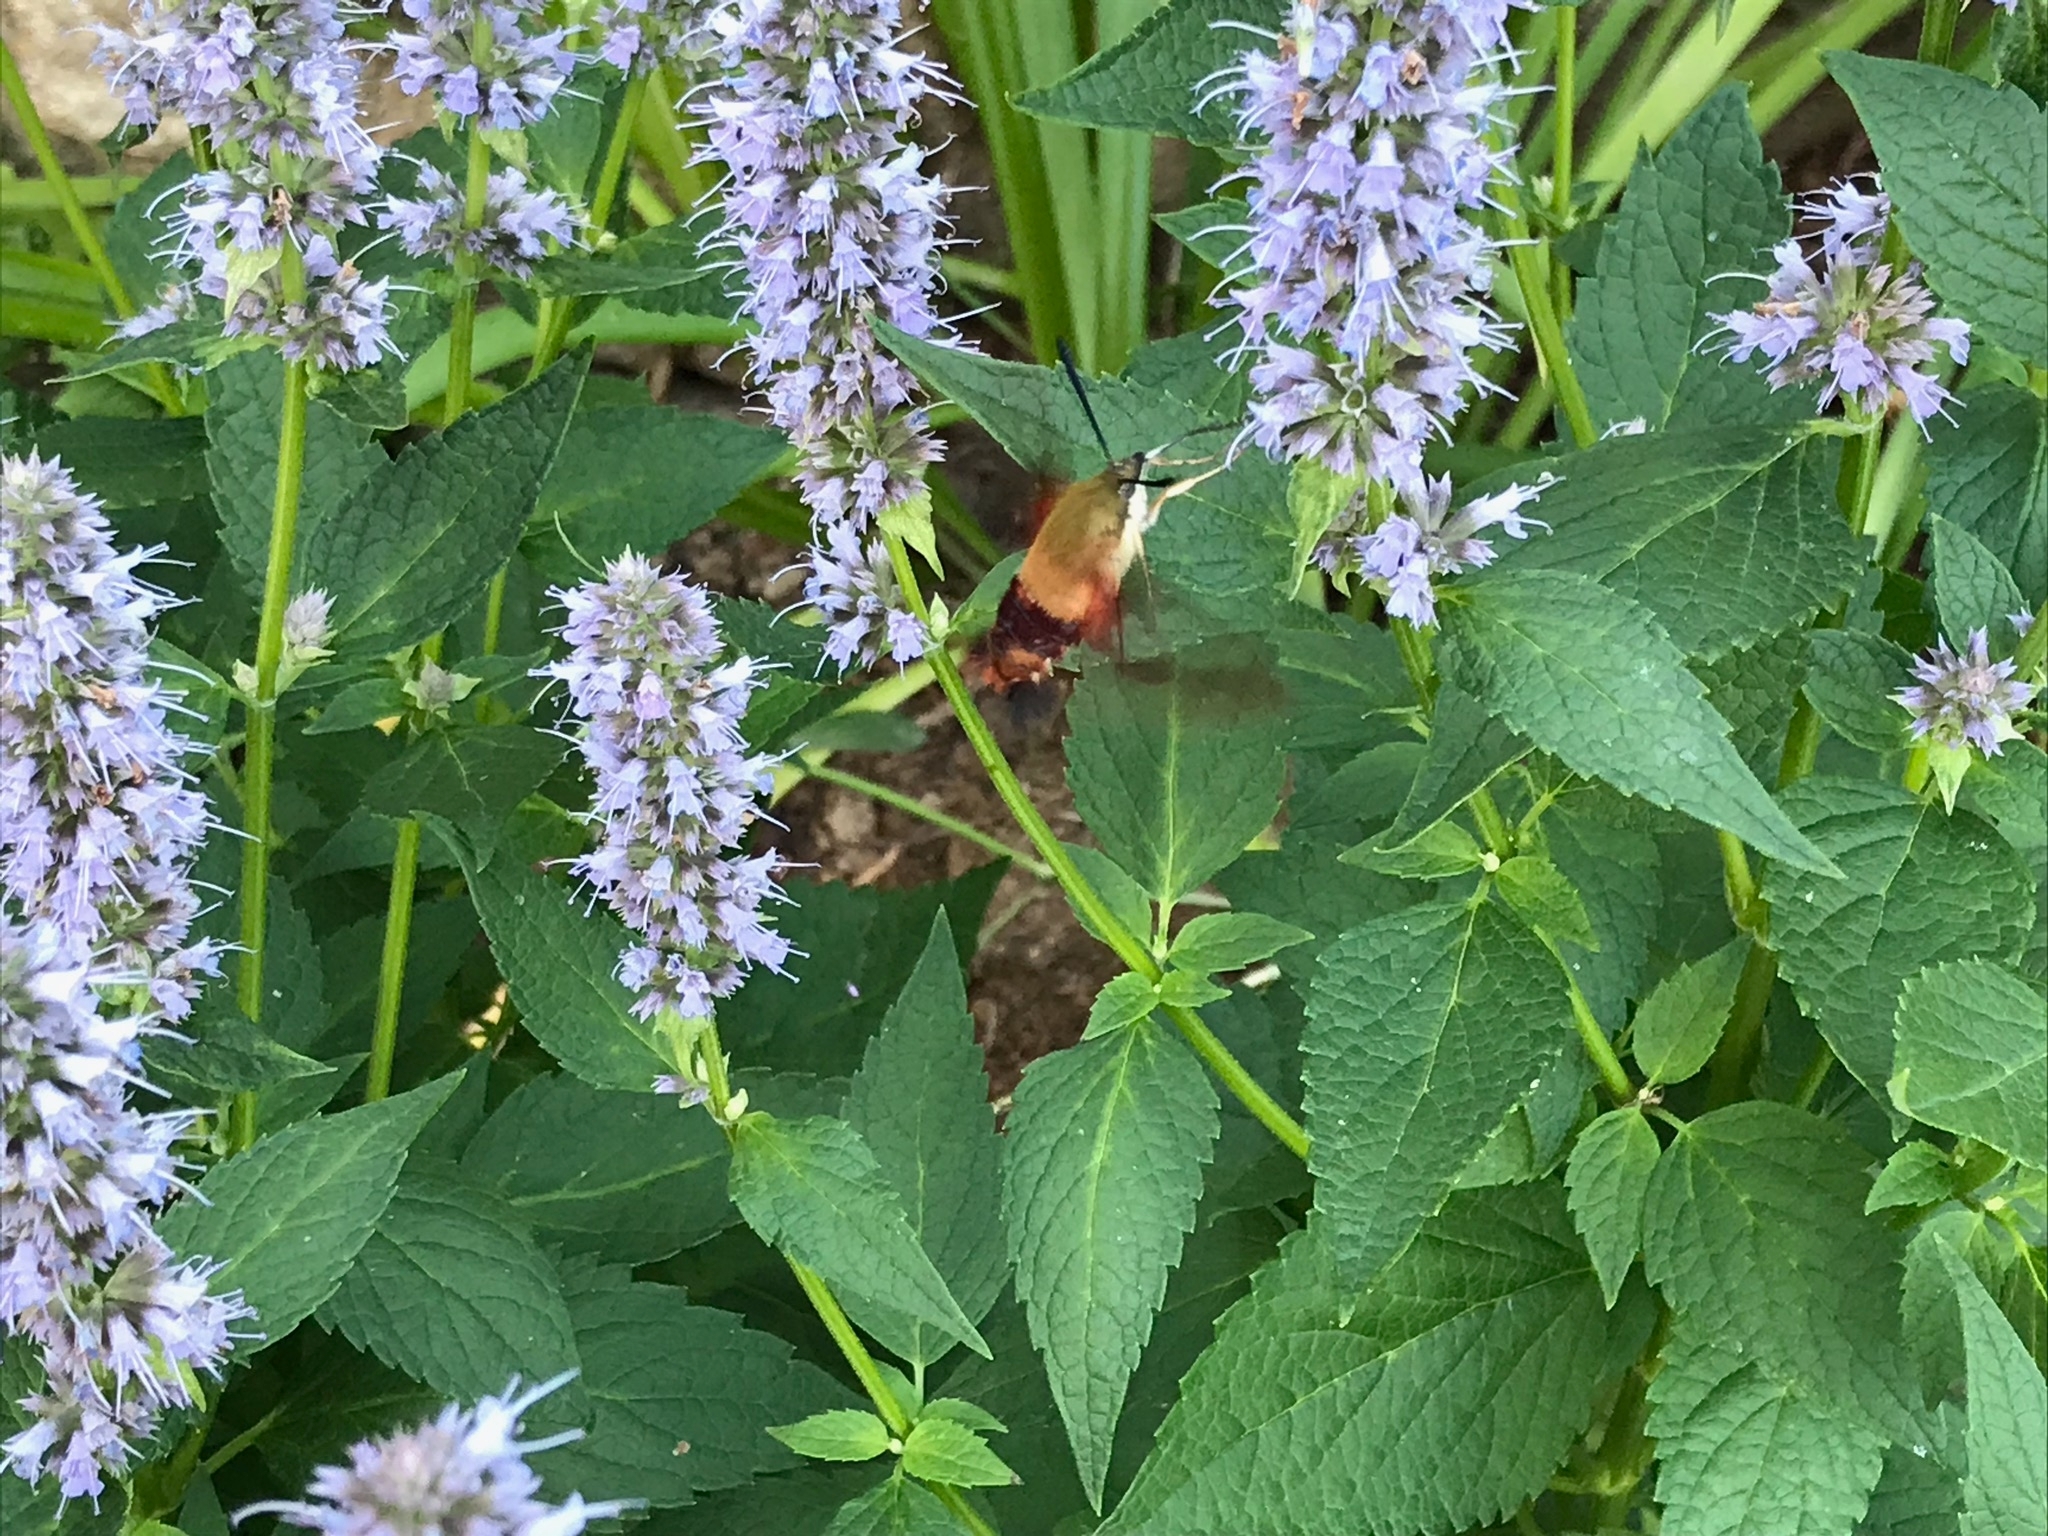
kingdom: Animalia
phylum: Arthropoda
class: Insecta
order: Lepidoptera
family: Sphingidae
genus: Hemaris
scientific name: Hemaris thysbe
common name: Common clear-wing
